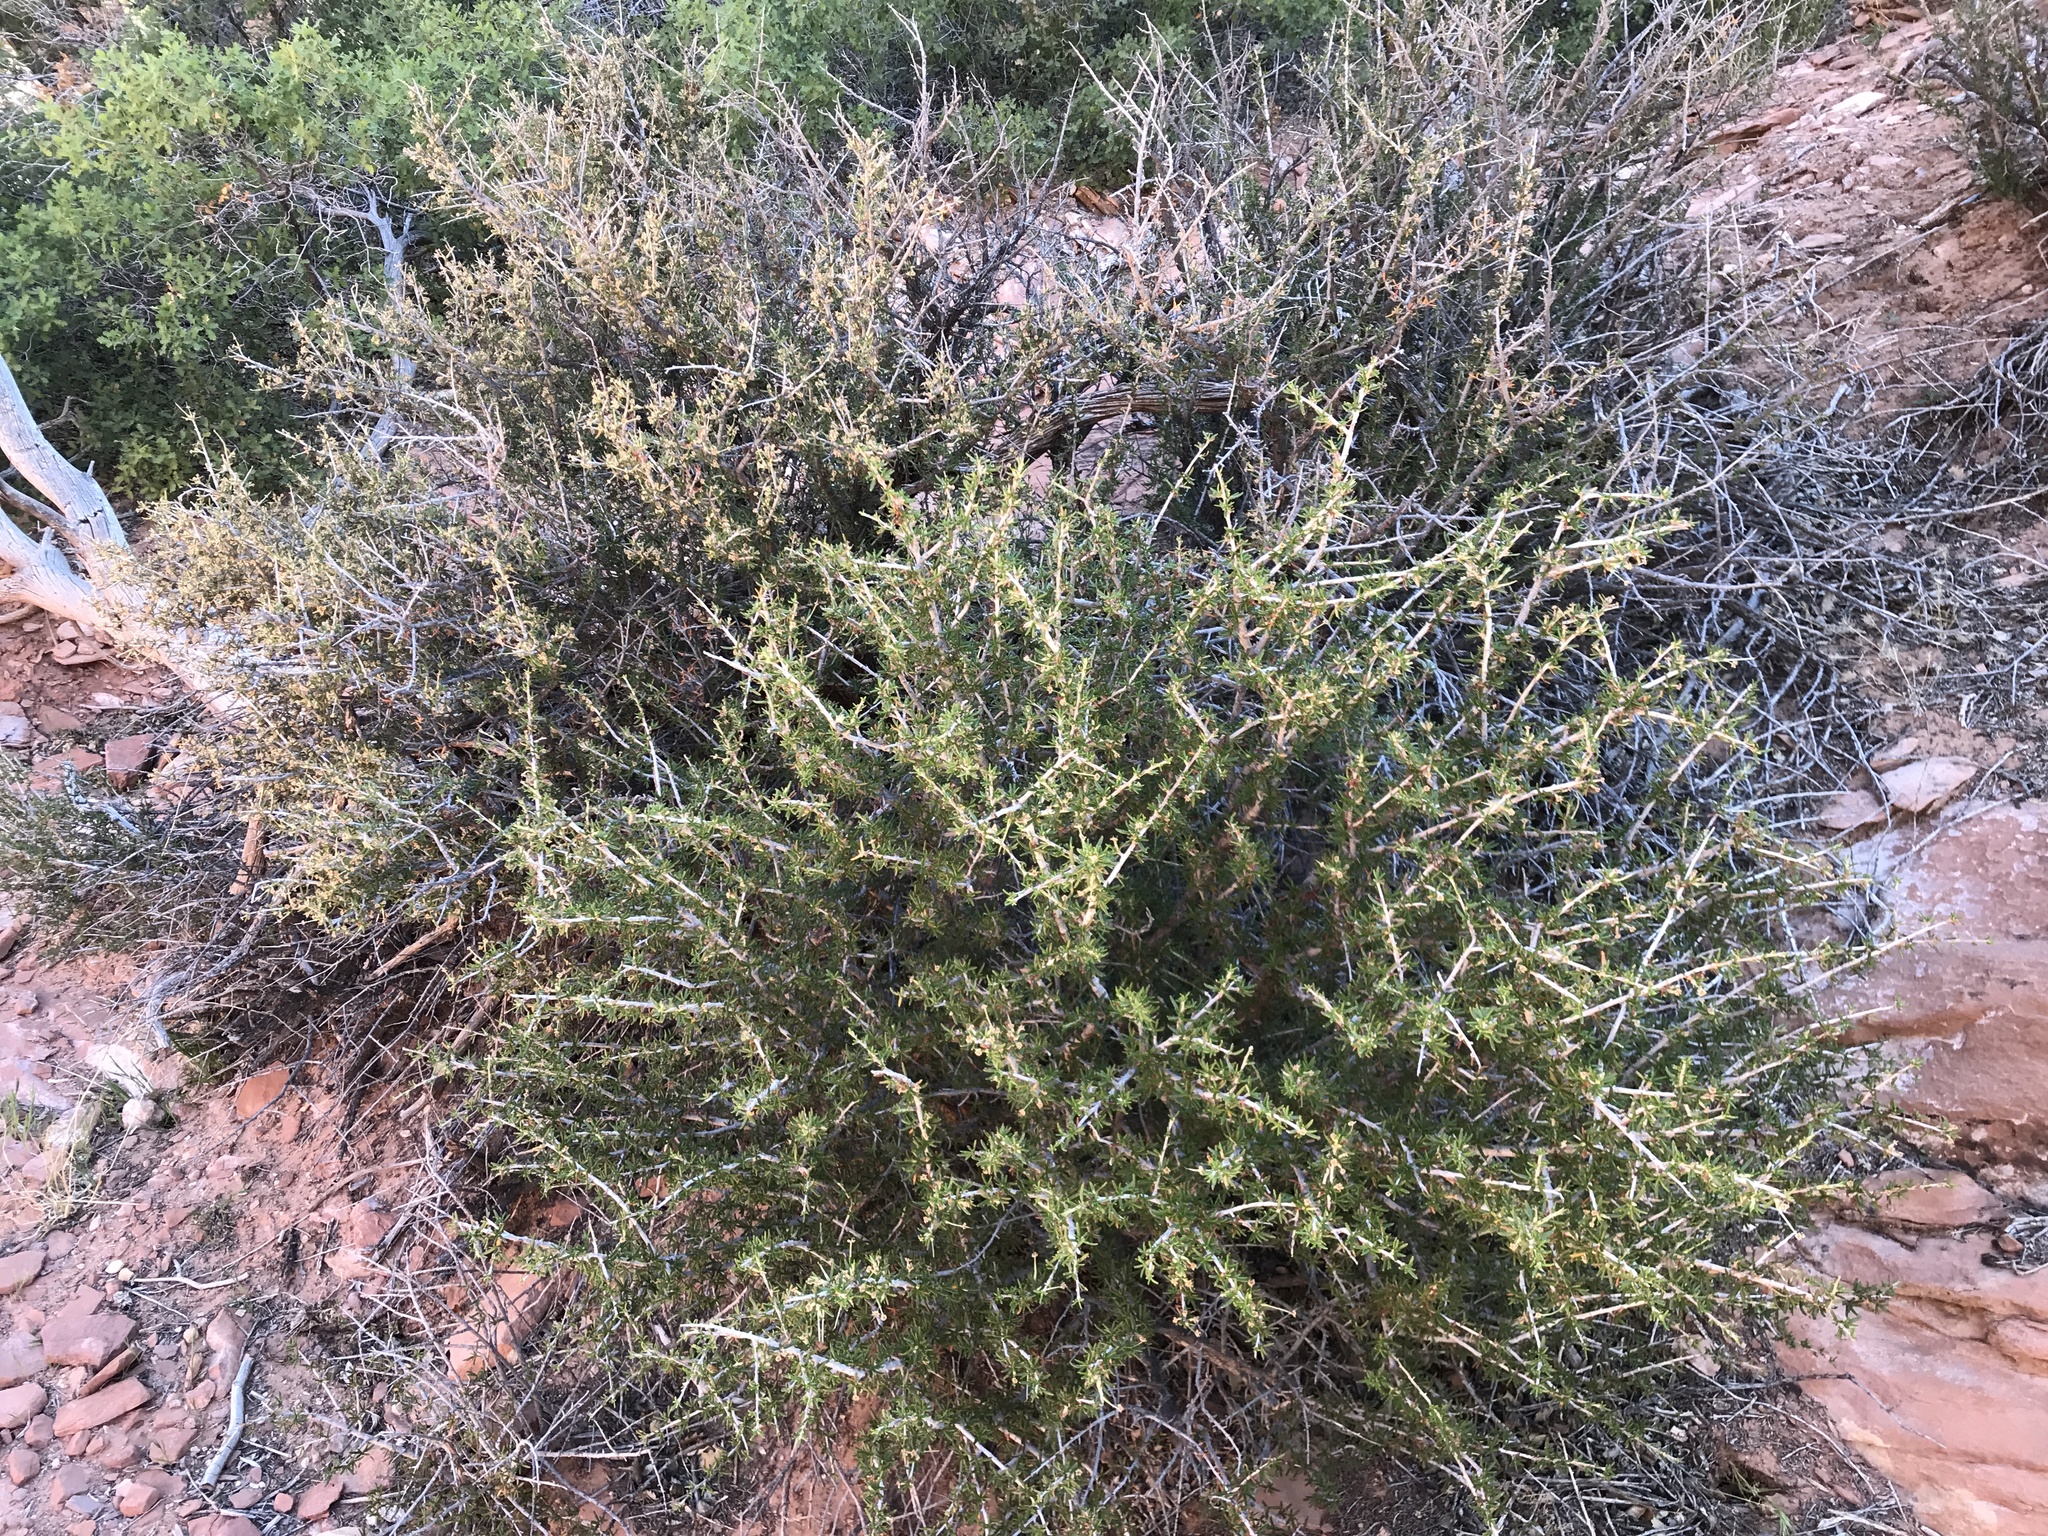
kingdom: Plantae
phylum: Tracheophyta
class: Magnoliopsida
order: Rosales
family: Rosaceae
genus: Cercocarpus
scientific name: Cercocarpus intricatus
